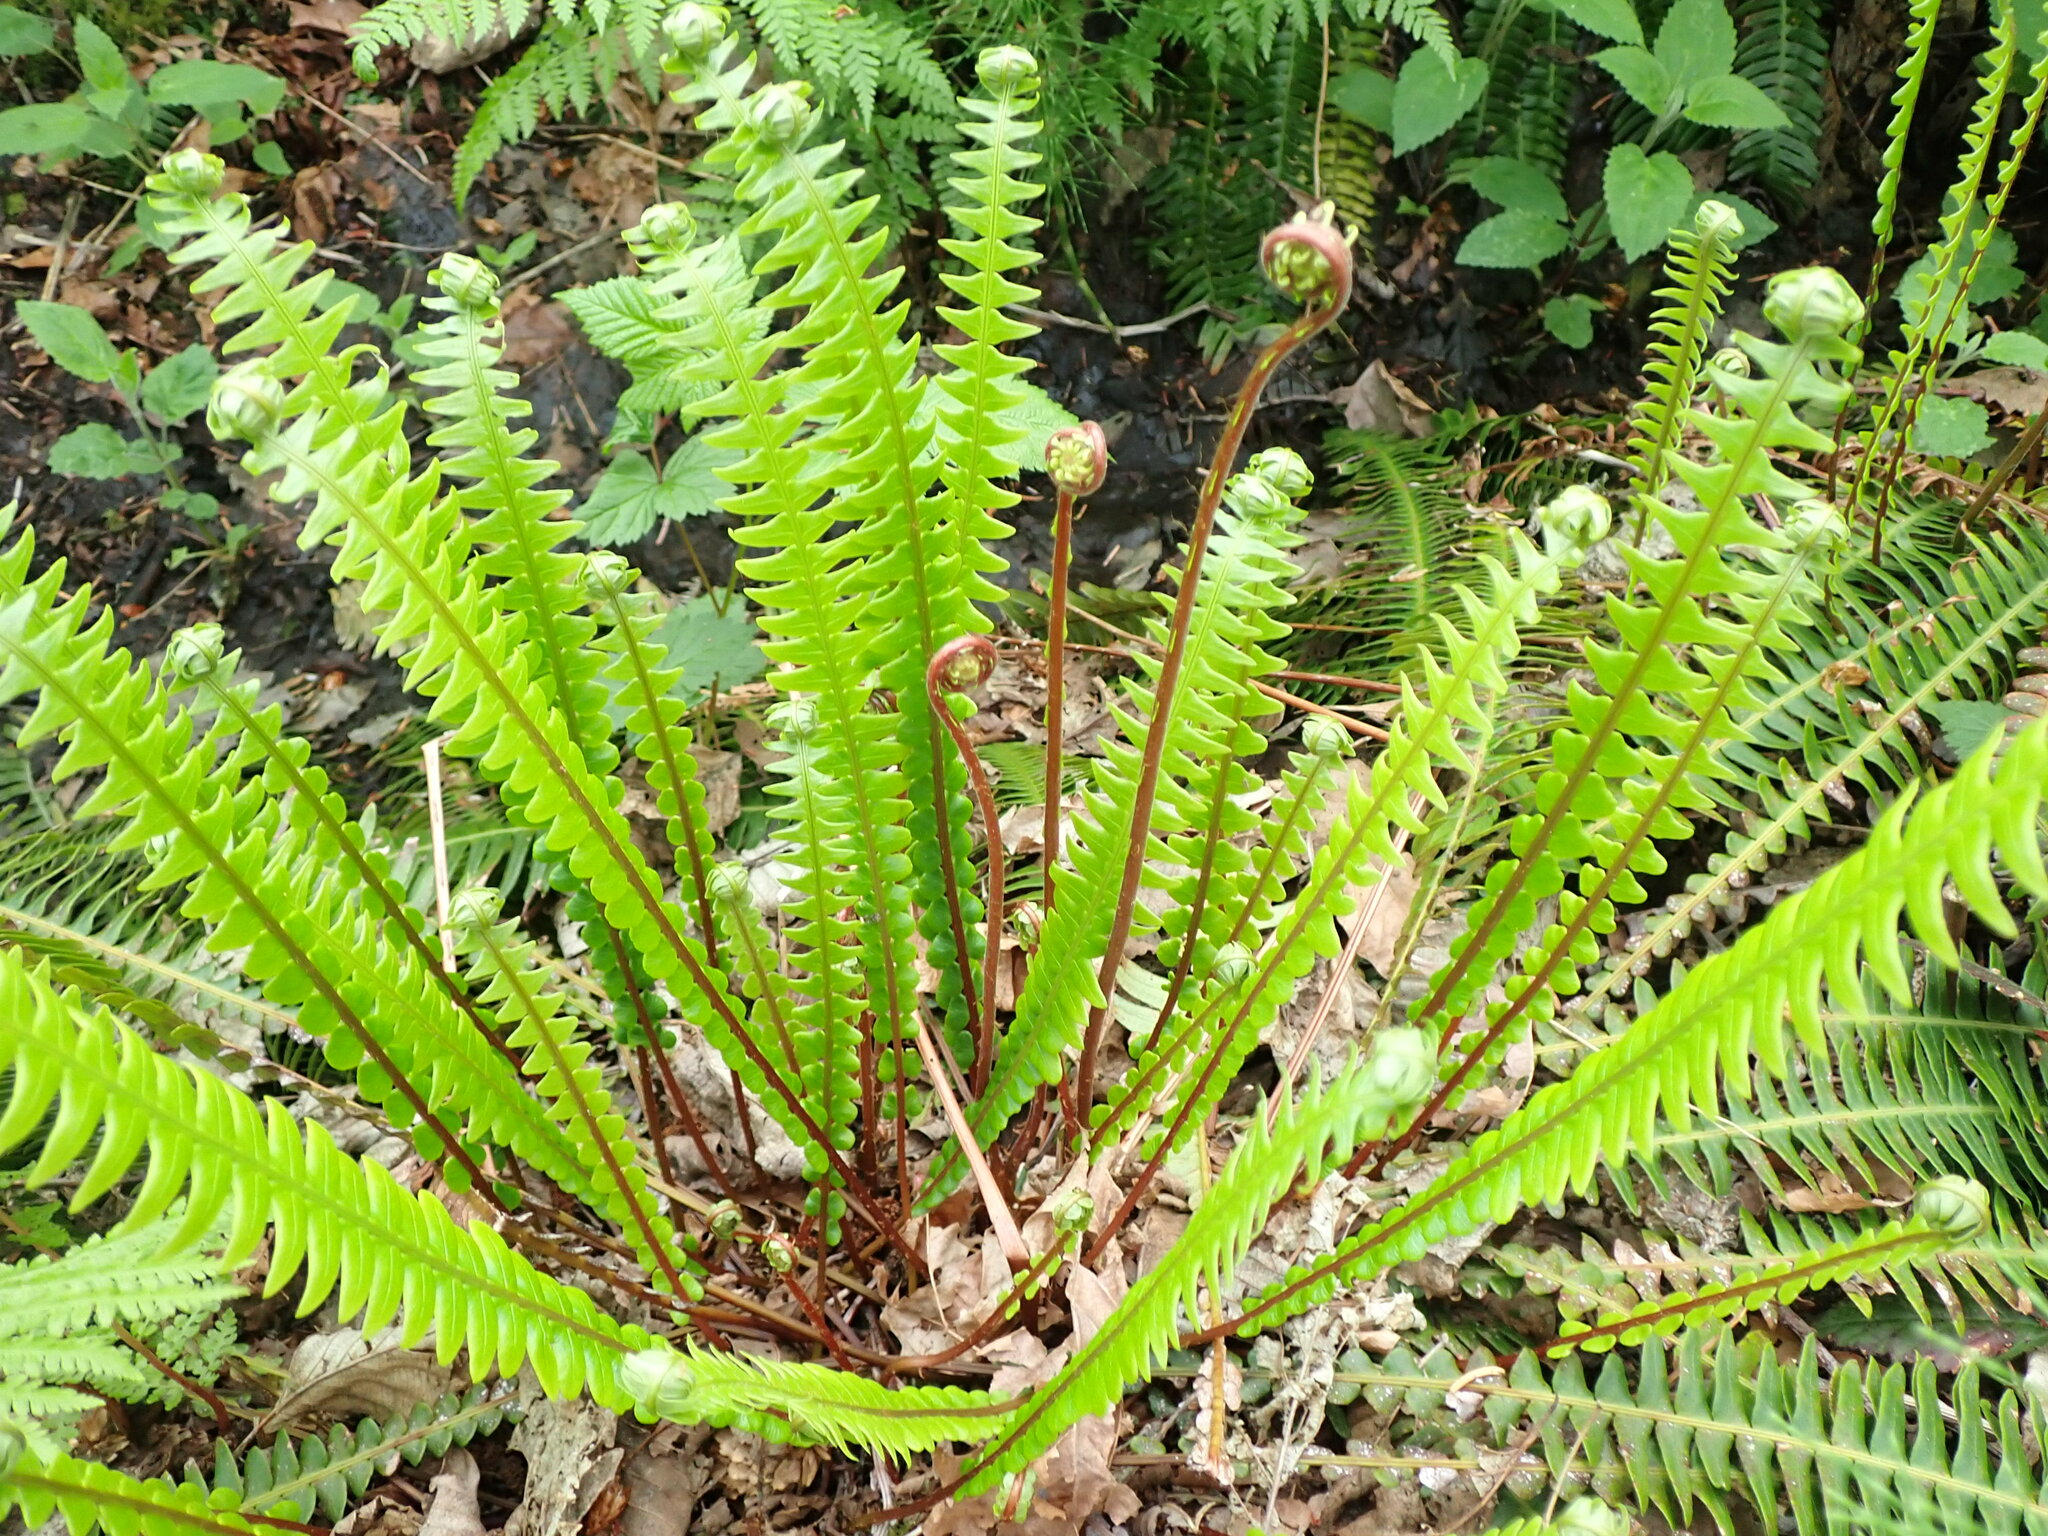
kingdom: Plantae
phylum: Tracheophyta
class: Polypodiopsida
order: Polypodiales
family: Blechnaceae
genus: Struthiopteris
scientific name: Struthiopteris spicant
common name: Deer fern
